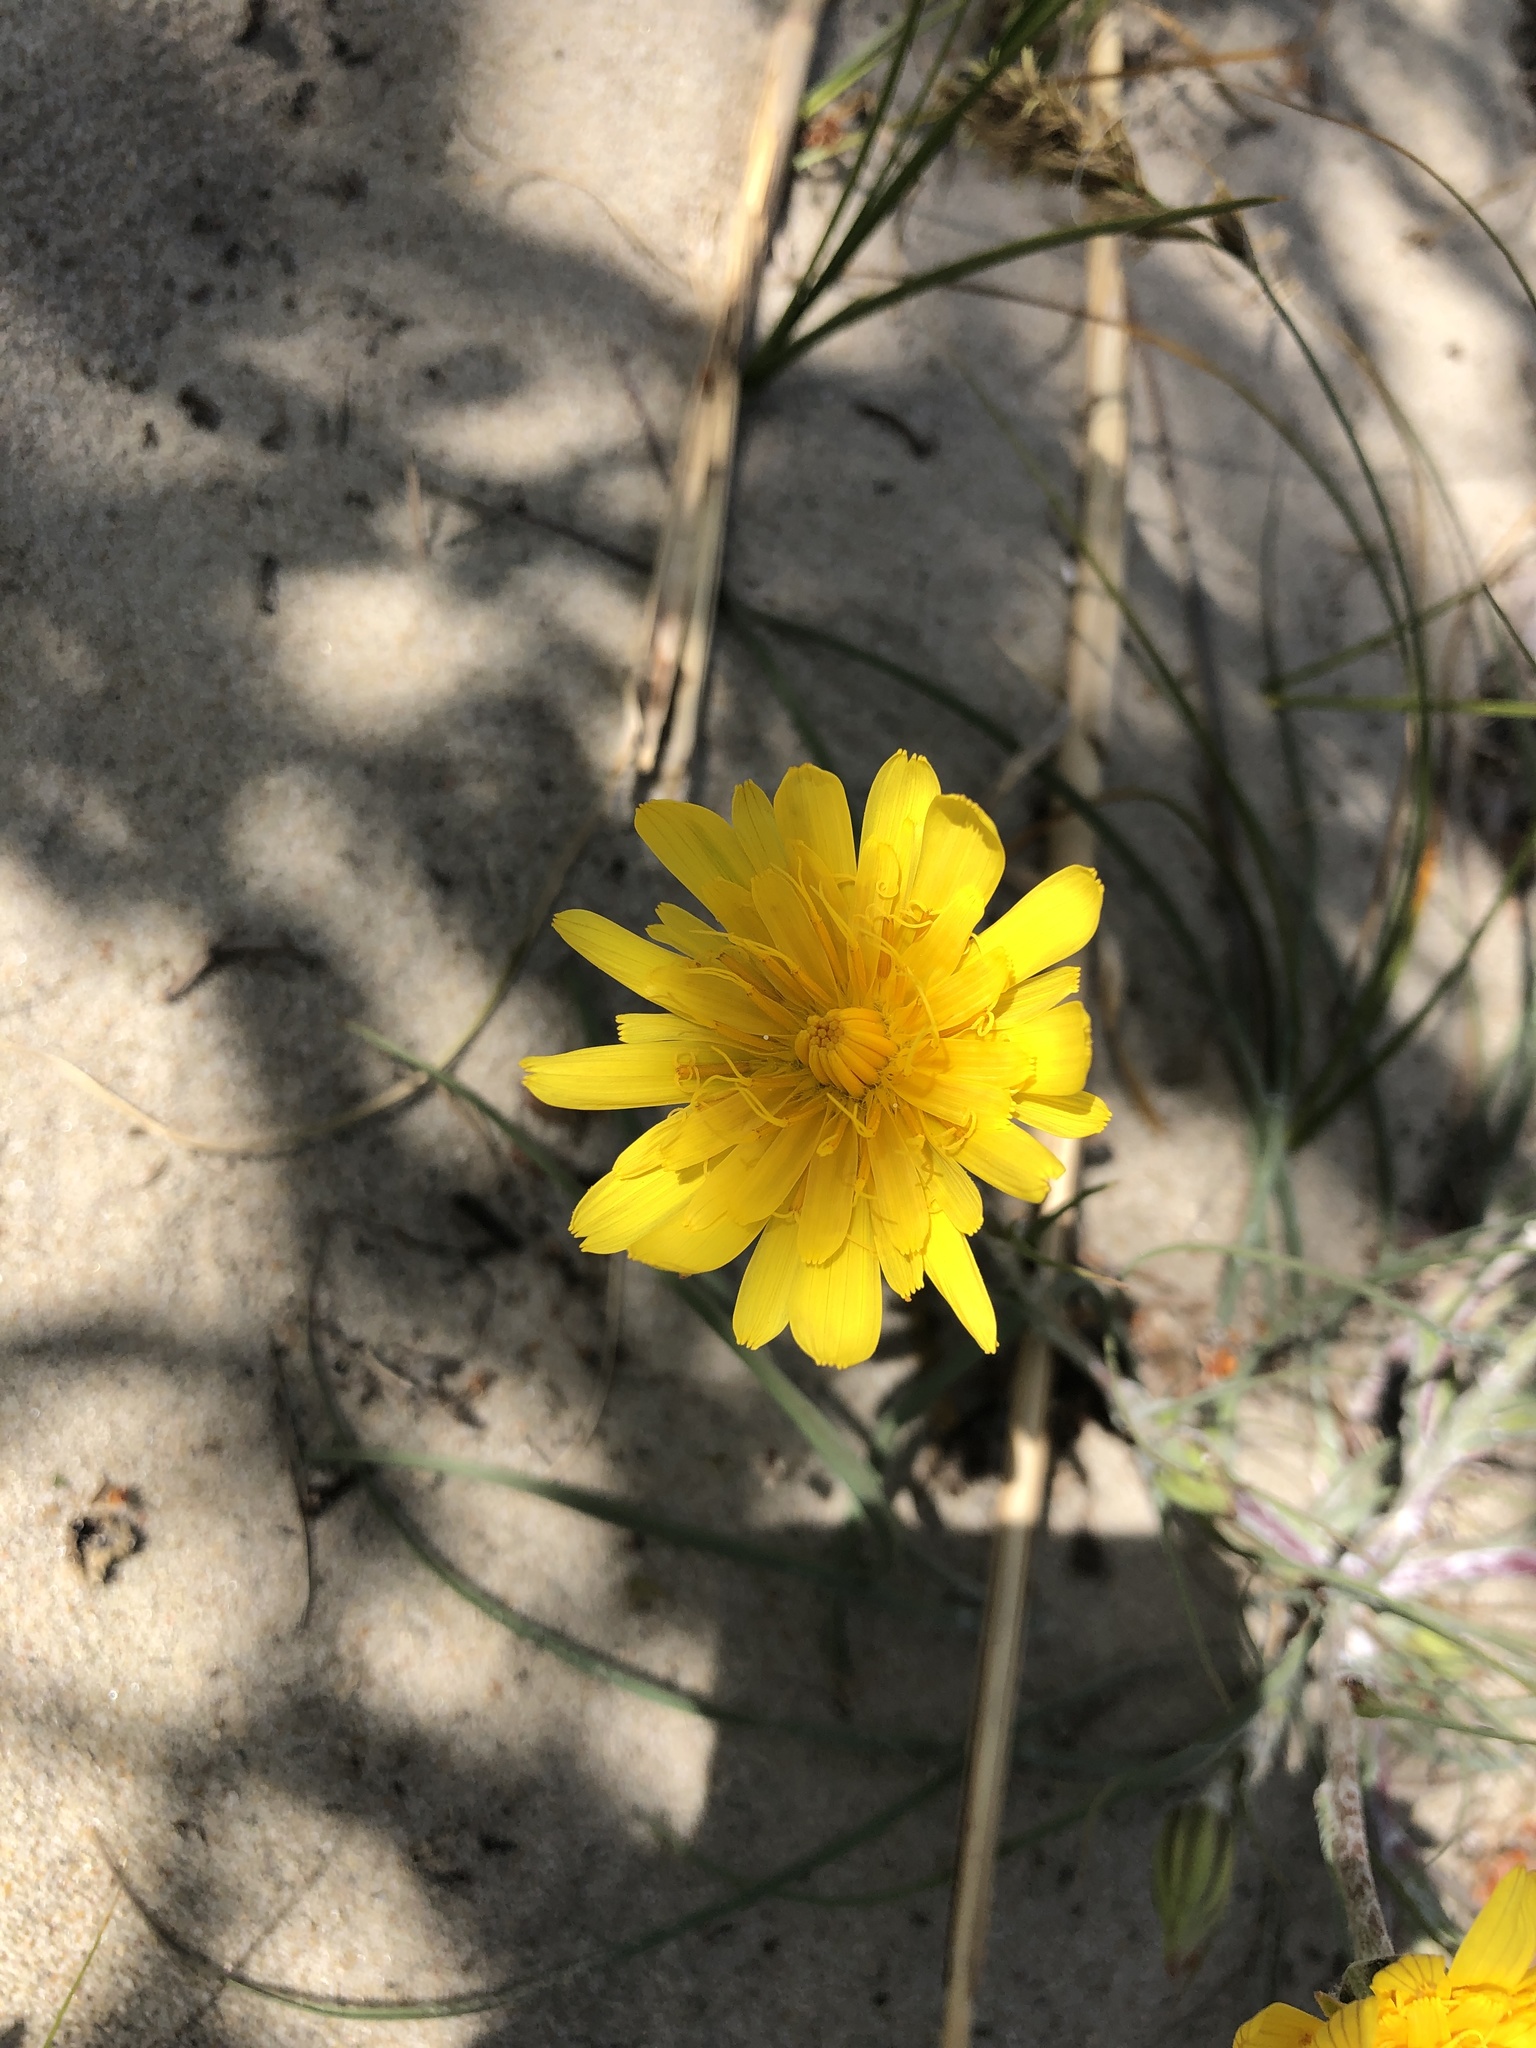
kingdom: Plantae
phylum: Tracheophyta
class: Magnoliopsida
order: Asterales
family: Asteraceae
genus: Tragopogon
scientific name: Tragopogon heterospermus
